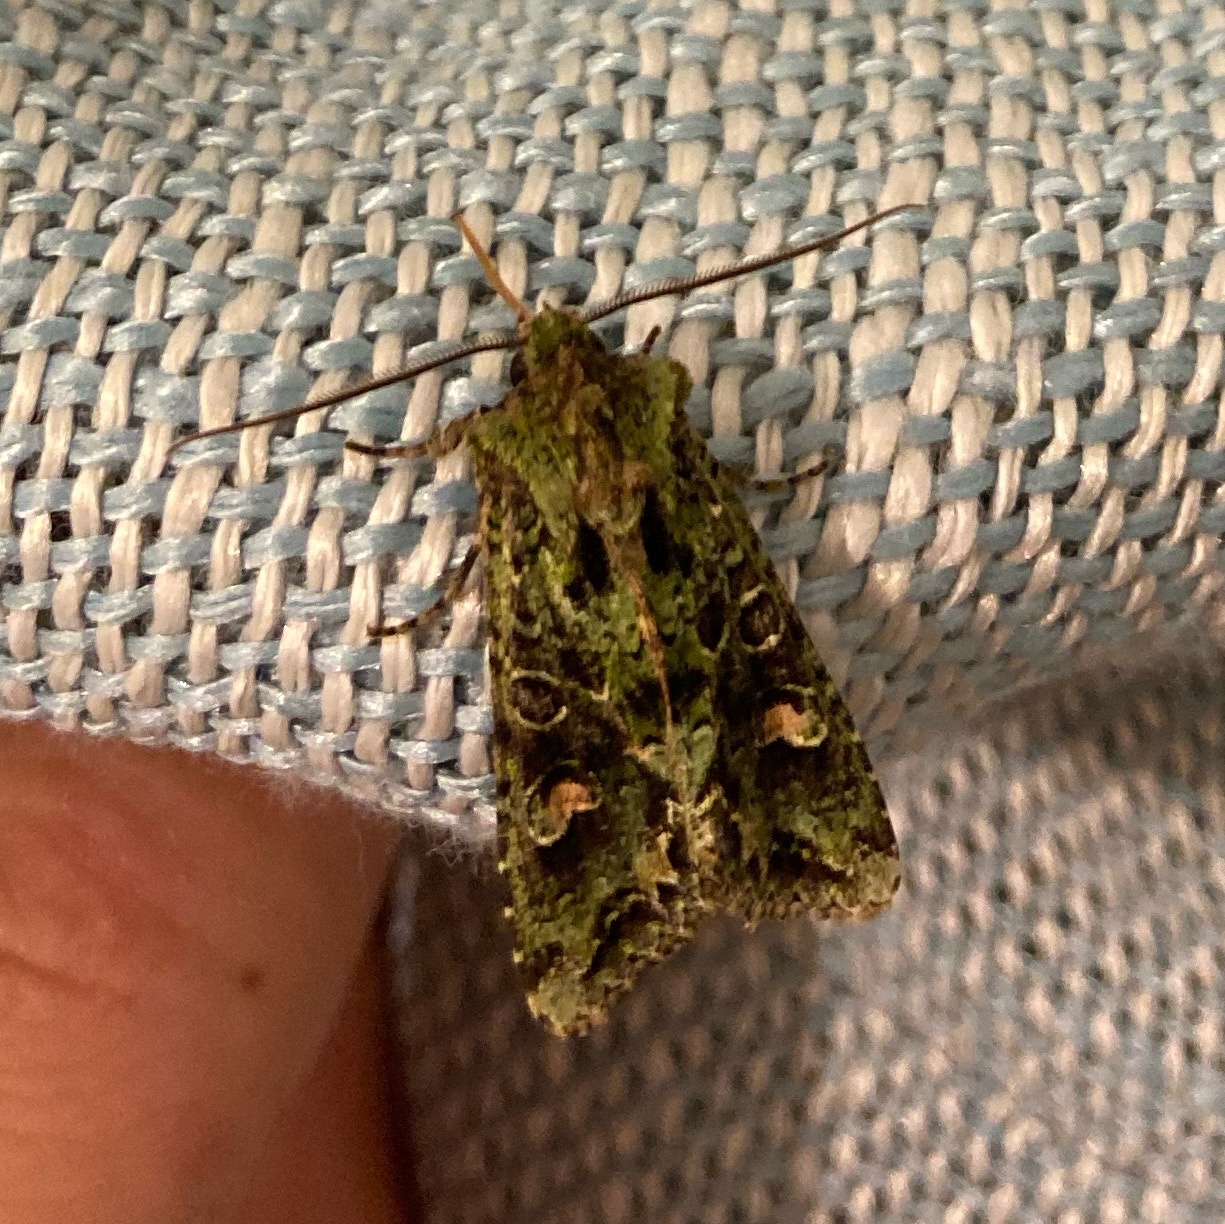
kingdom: Animalia
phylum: Arthropoda
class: Insecta
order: Lepidoptera
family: Noctuidae
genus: Ichneutica
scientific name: Ichneutica
